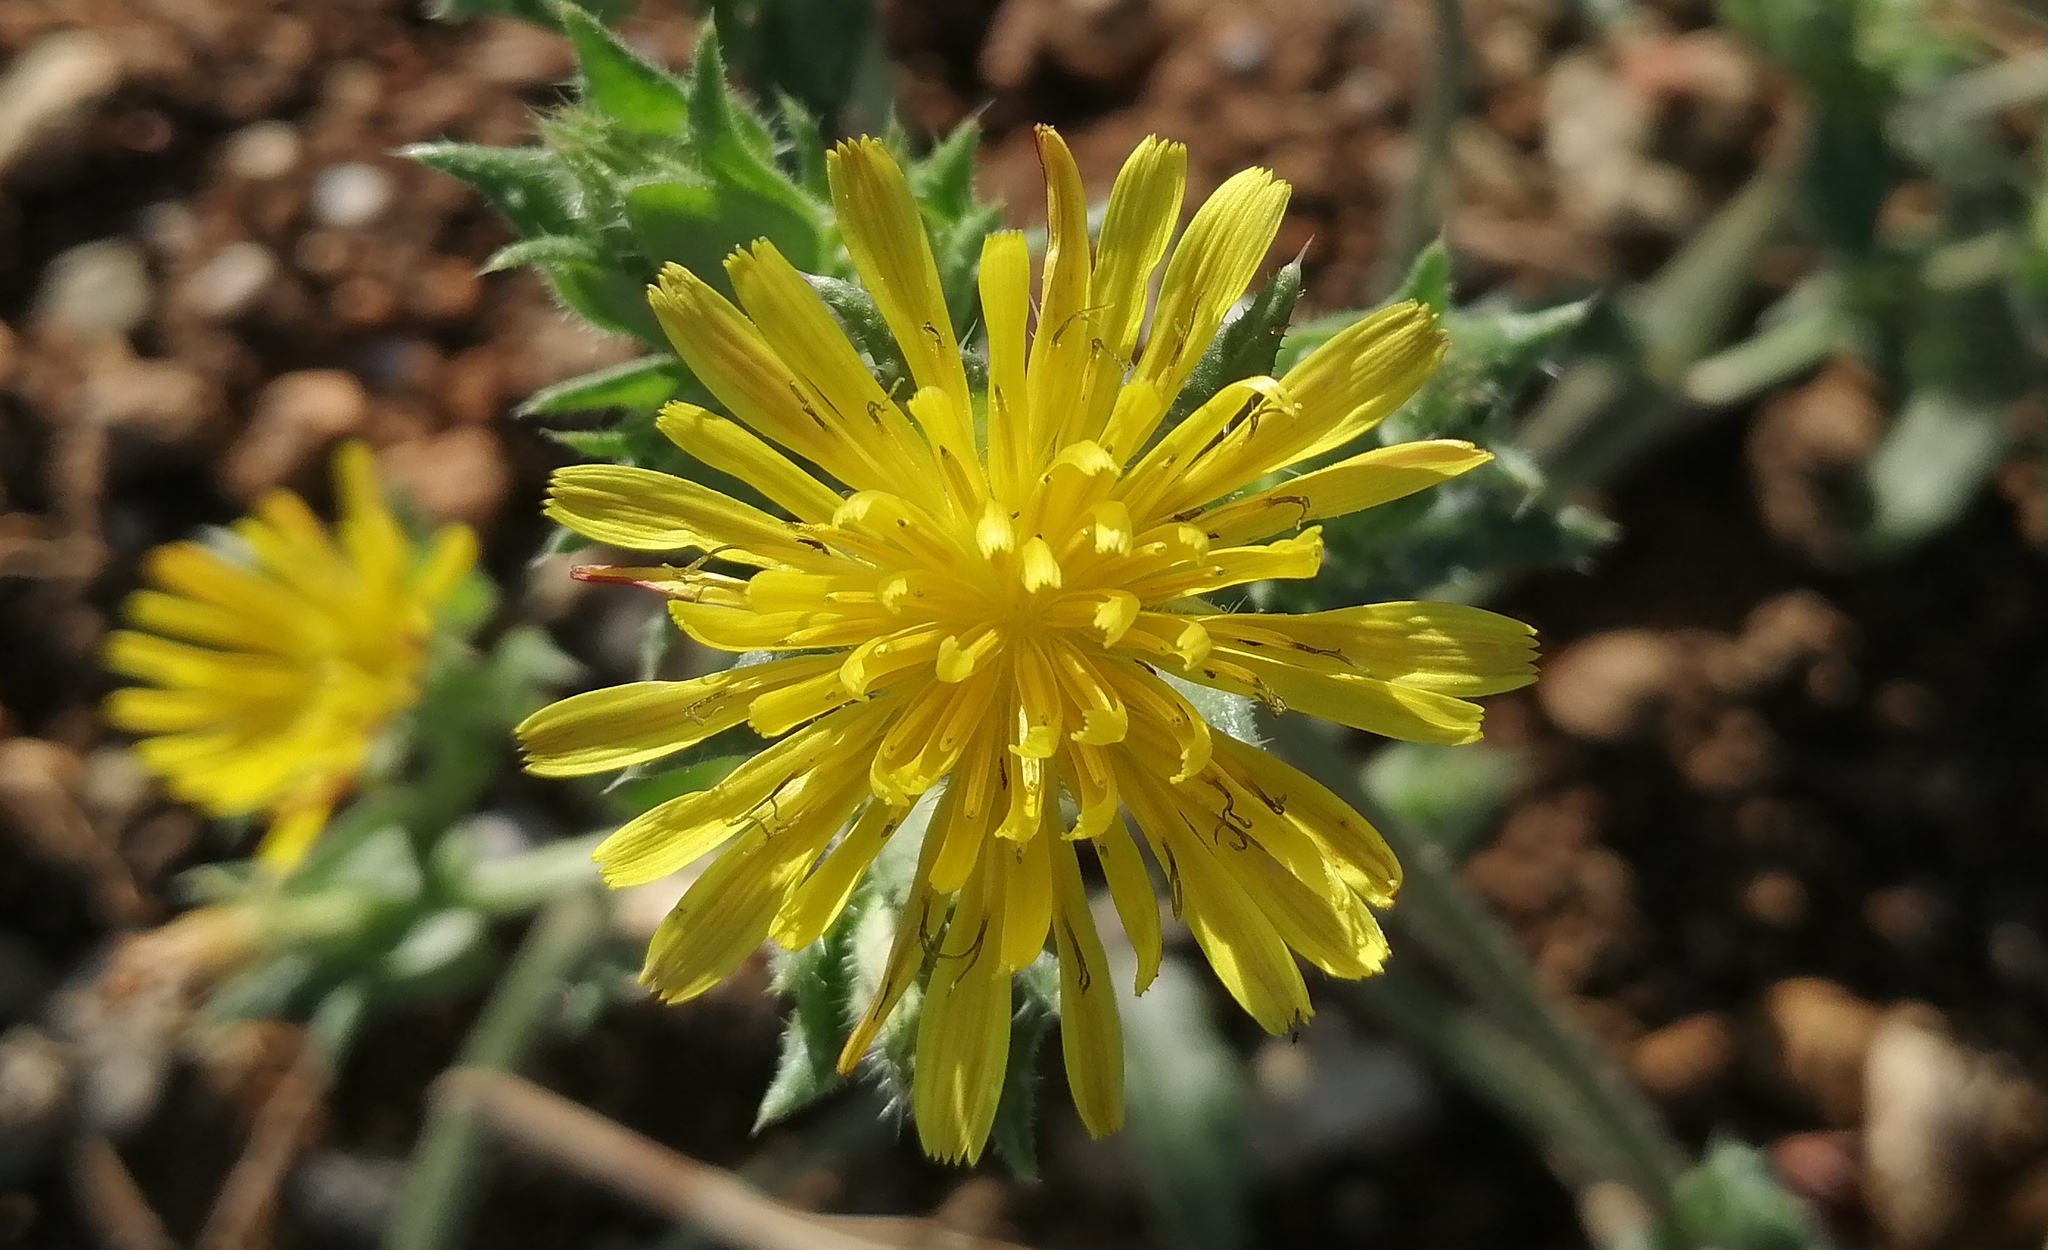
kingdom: Plantae
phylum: Tracheophyta
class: Magnoliopsida
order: Asterales
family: Asteraceae
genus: Helminthotheca
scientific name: Helminthotheca echioides
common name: Ox-tongue
